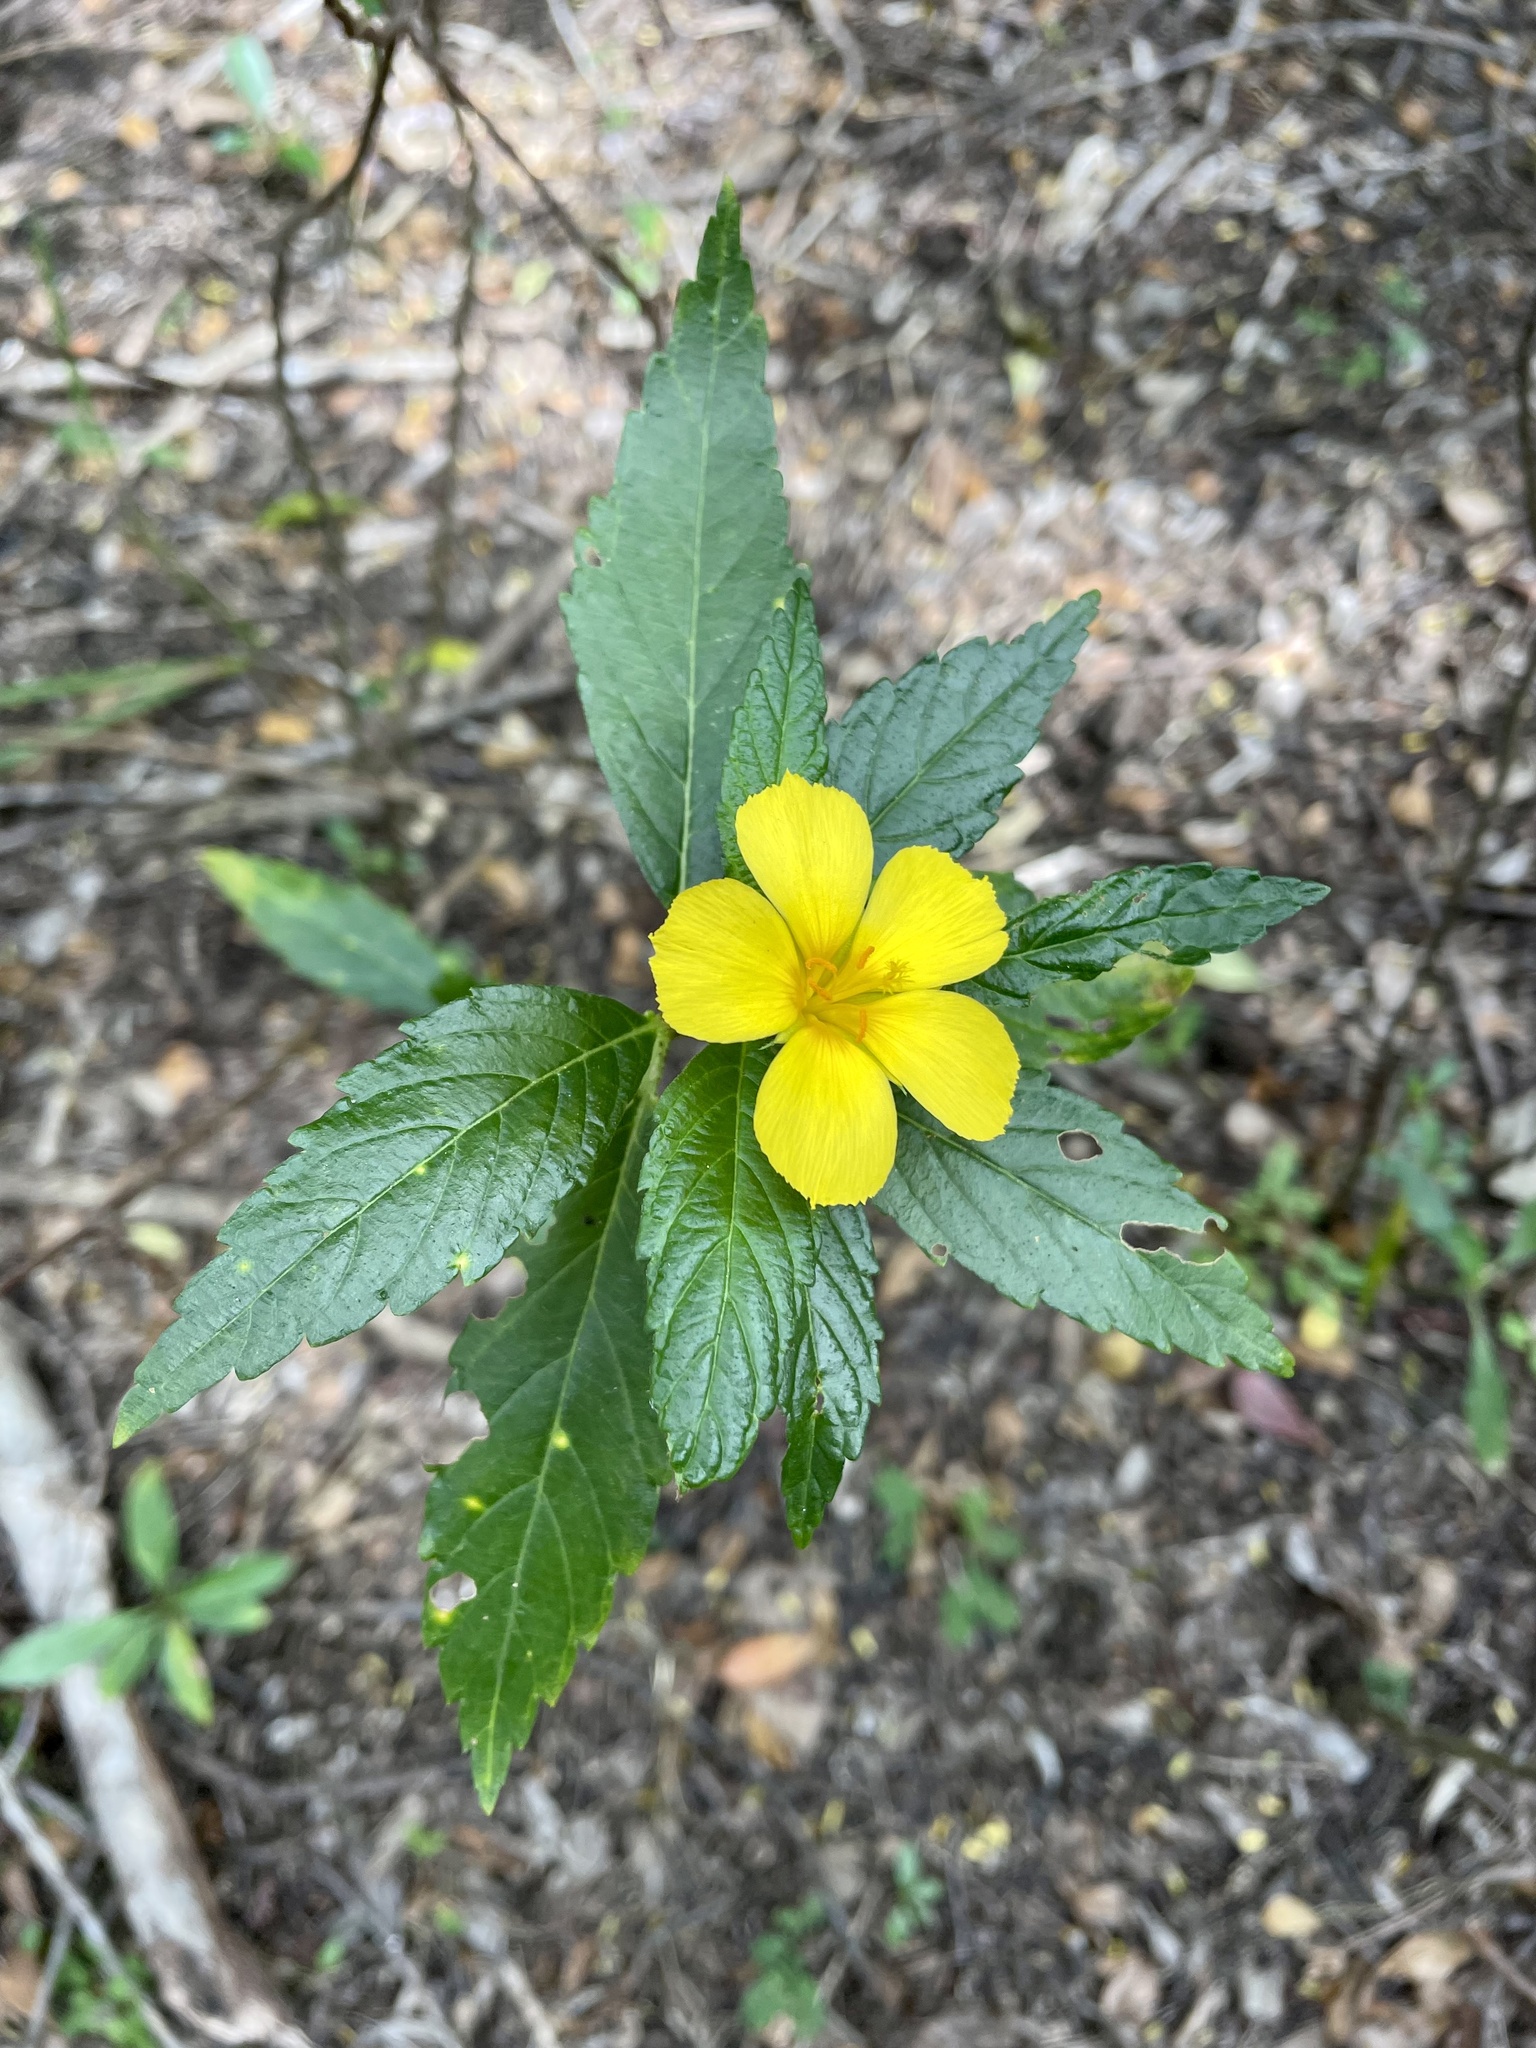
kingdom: Plantae
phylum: Tracheophyta
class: Magnoliopsida
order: Malpighiales
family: Turneraceae
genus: Turnera
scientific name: Turnera ulmifolia
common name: Ramgoat dashalong
